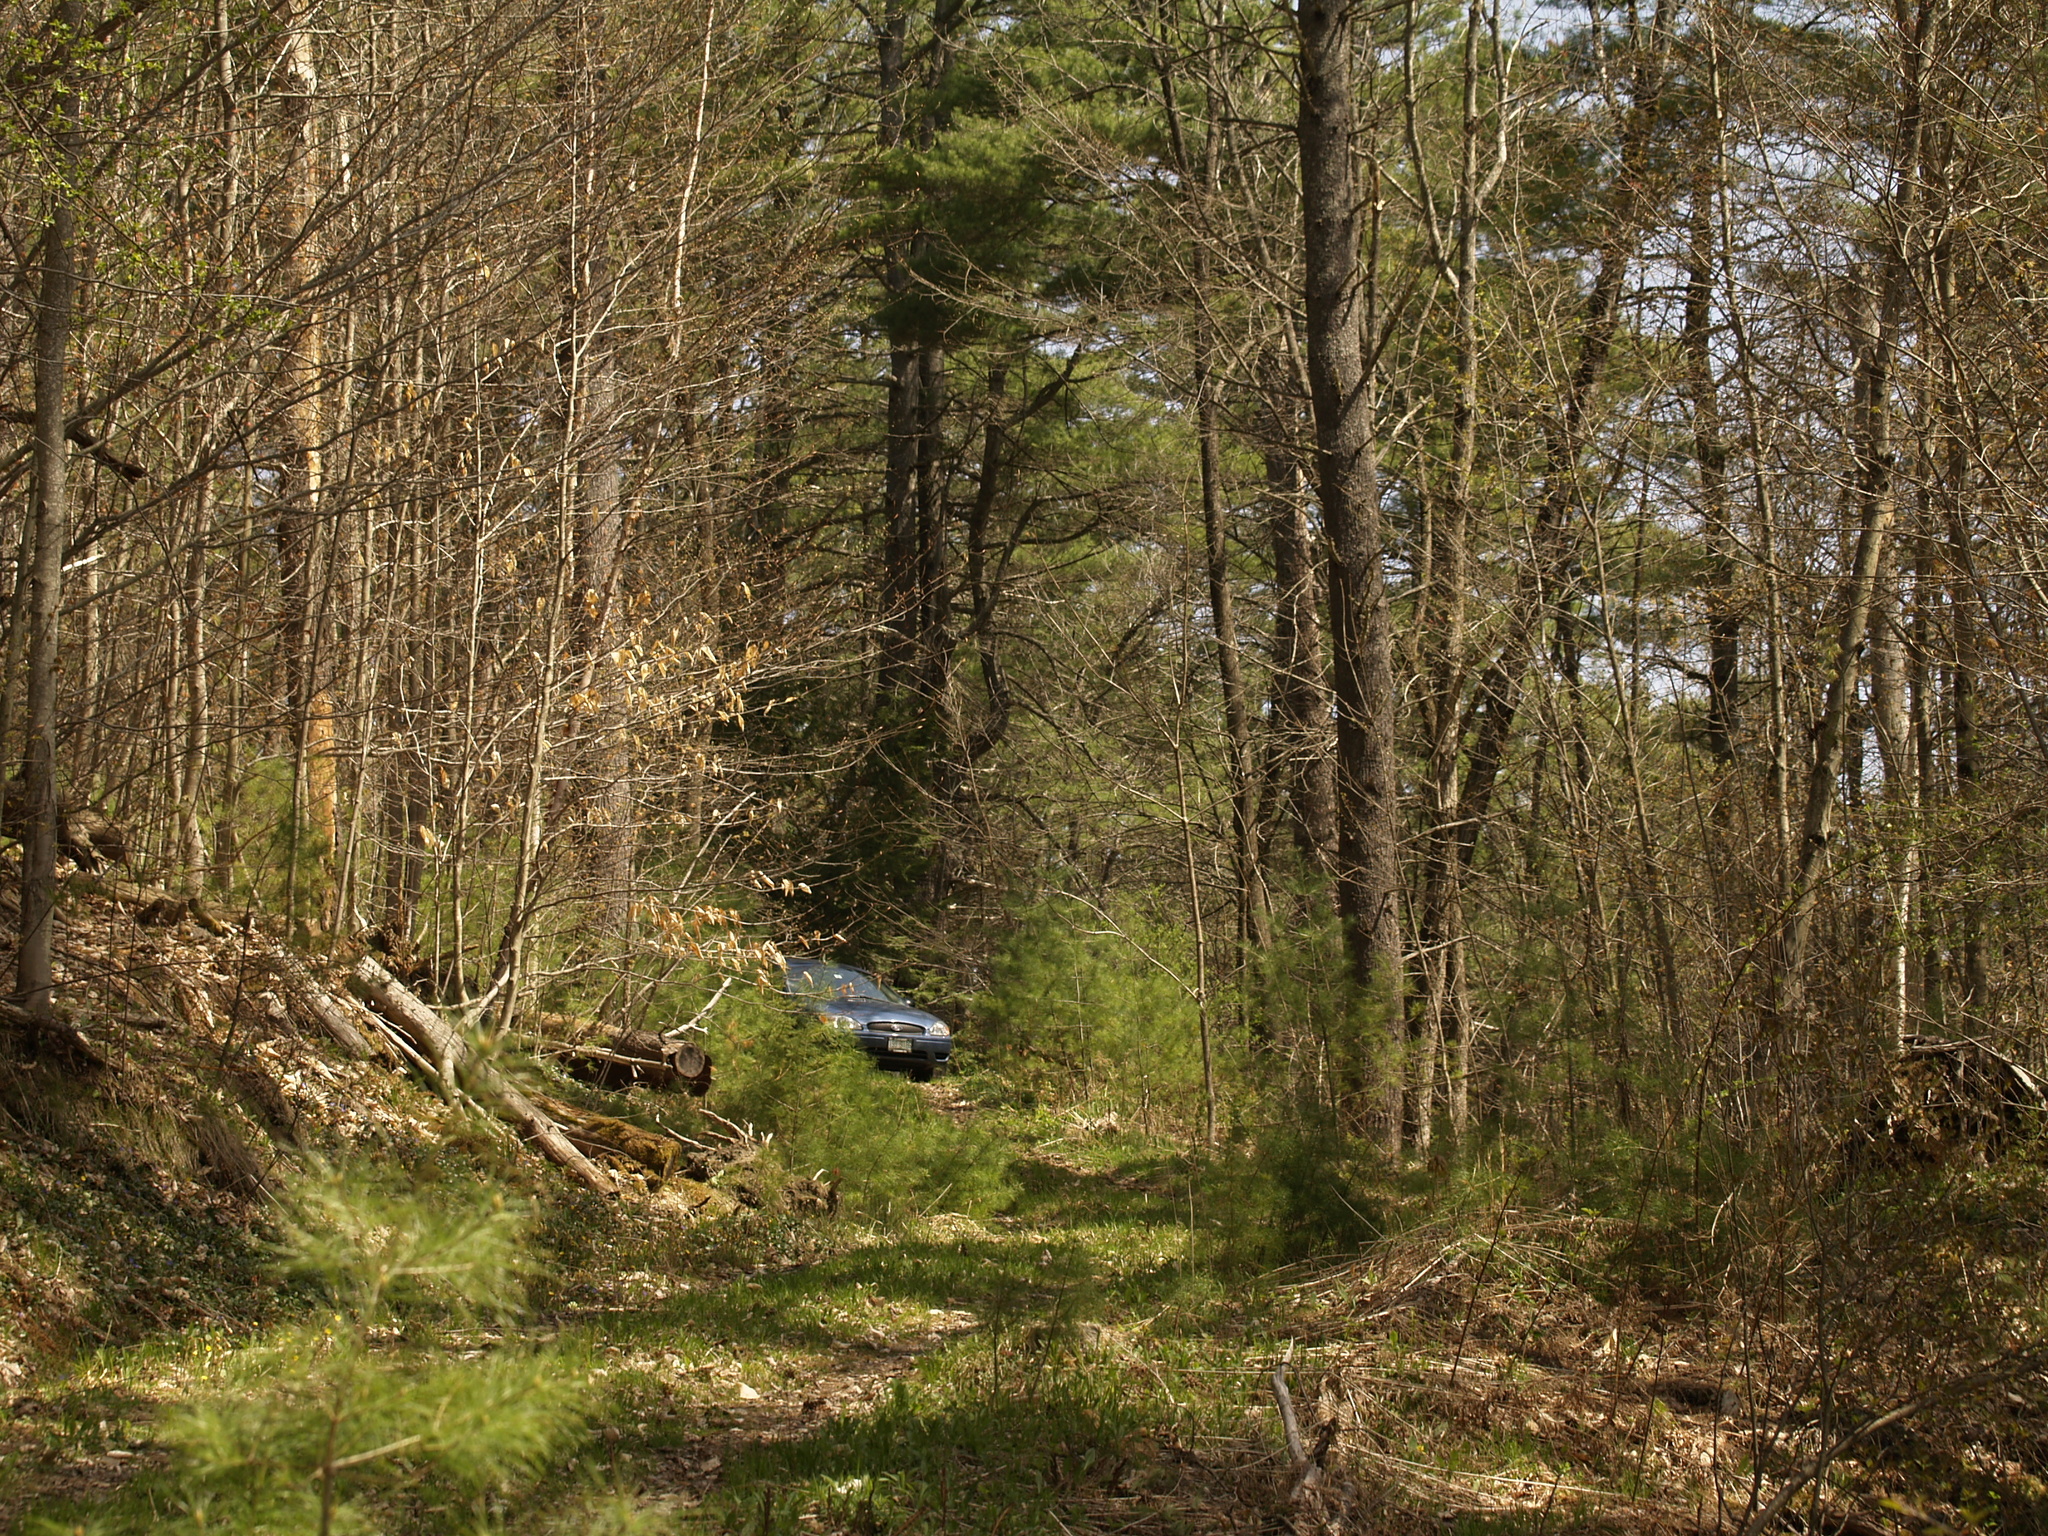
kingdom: Plantae
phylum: Tracheophyta
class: Pinopsida
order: Pinales
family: Pinaceae
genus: Pinus
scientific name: Pinus strobus
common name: Weymouth pine
